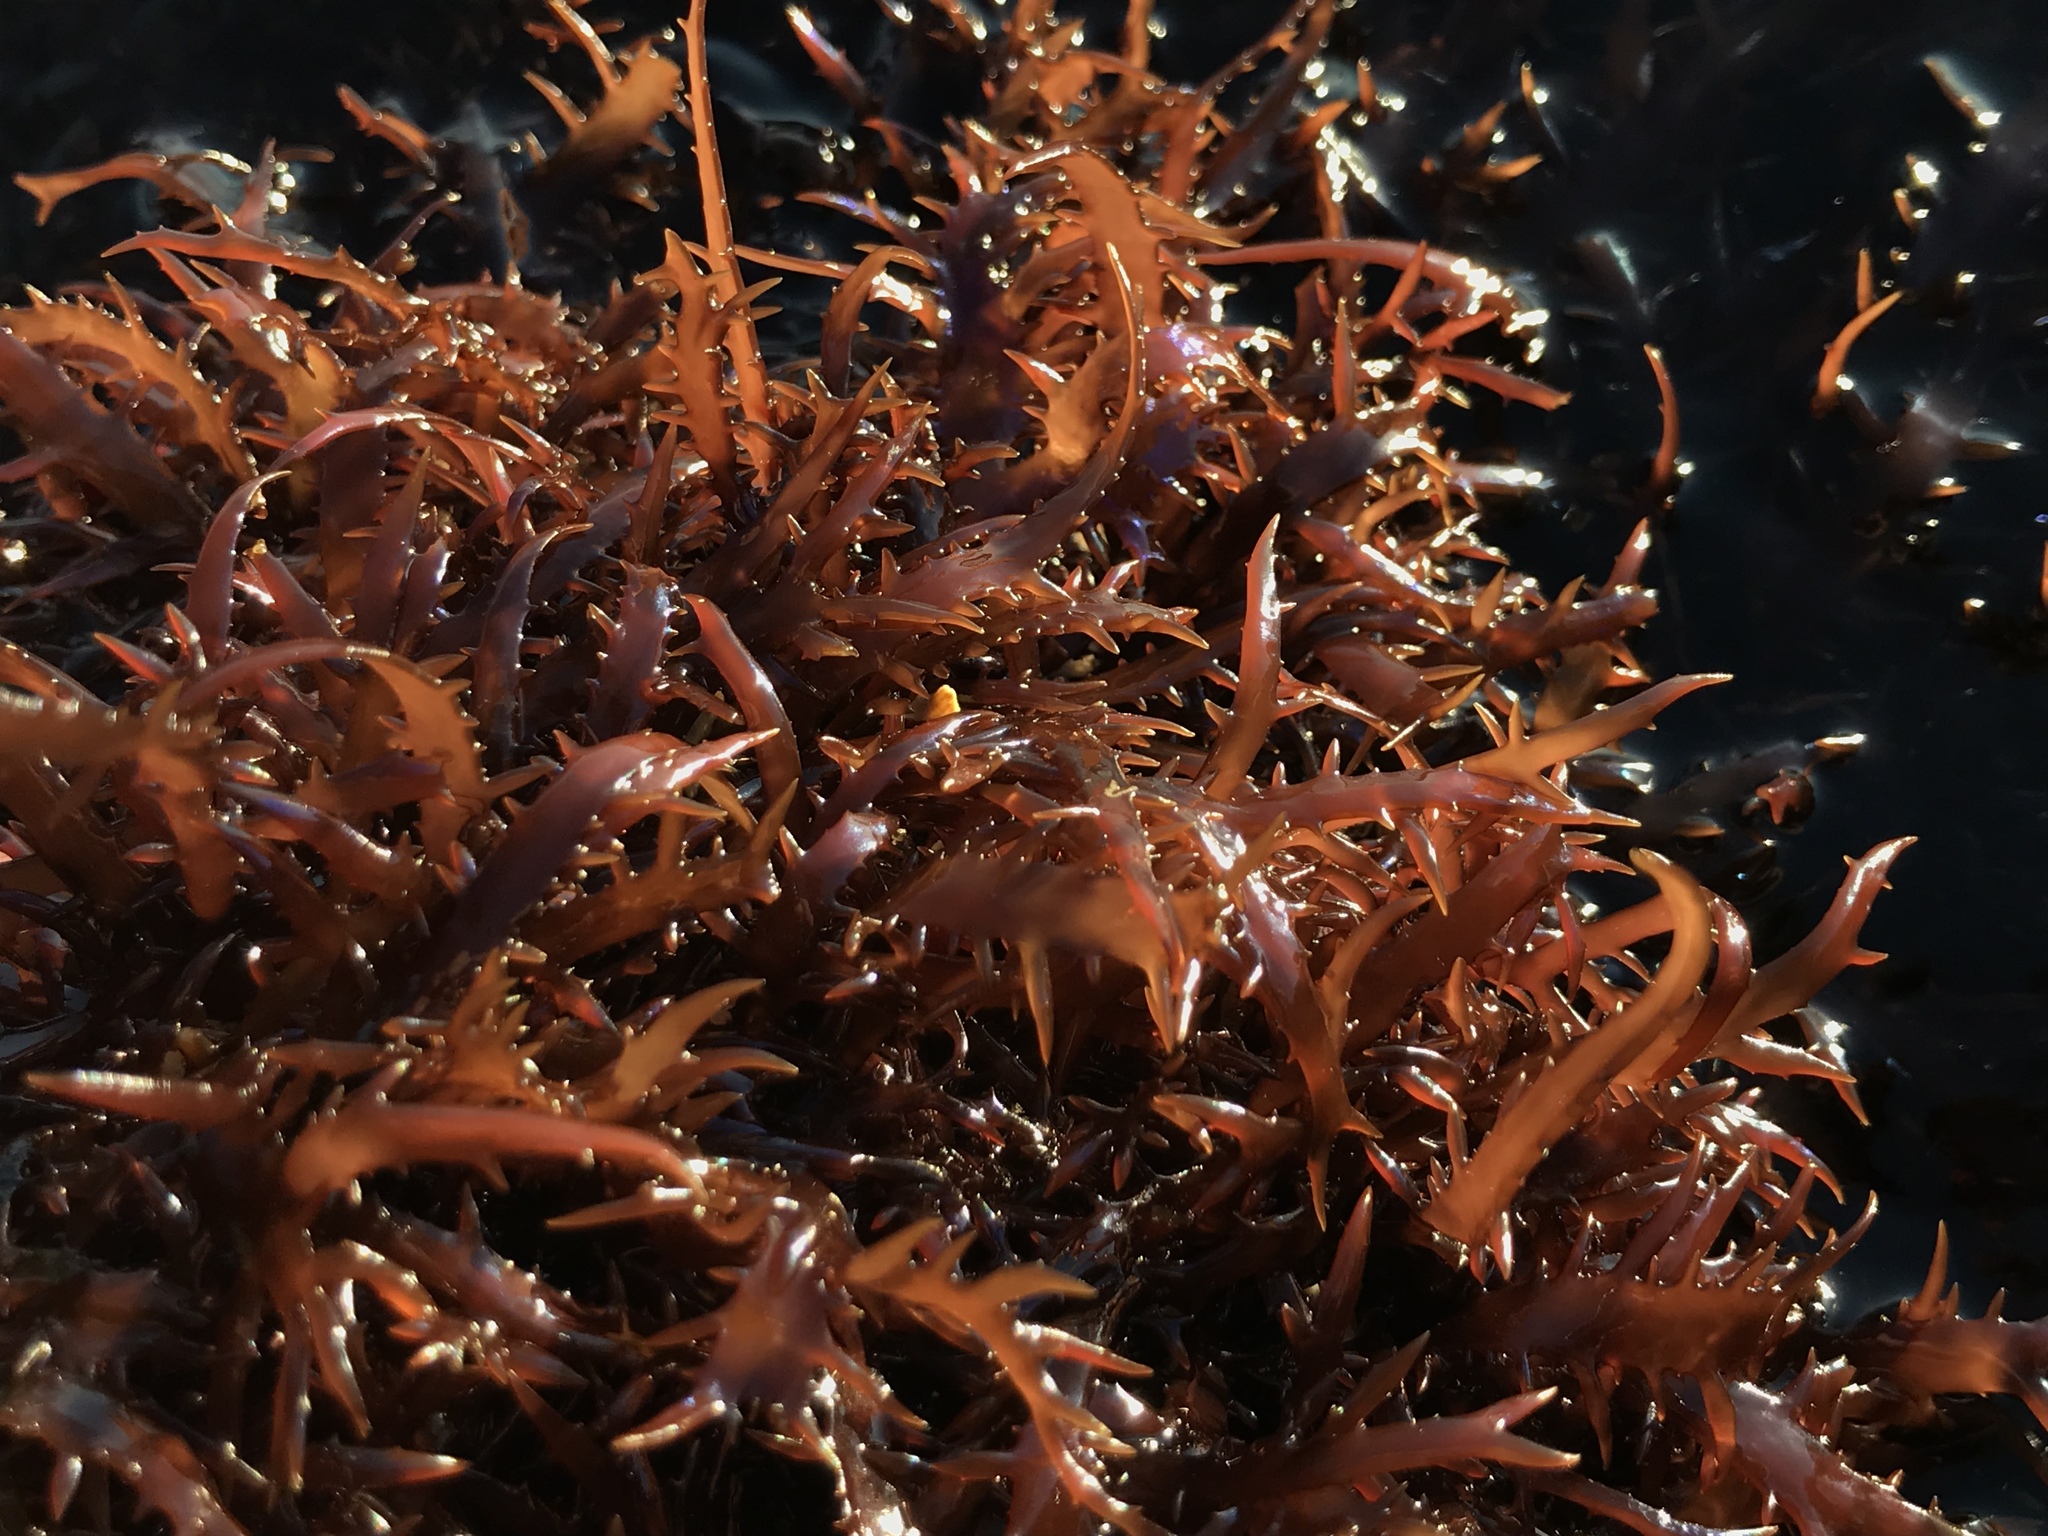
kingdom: Plantae
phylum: Rhodophyta
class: Florideophyceae
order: Gigartinales
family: Gigartinaceae
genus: Chondracanthus
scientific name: Chondracanthus chamissoi
